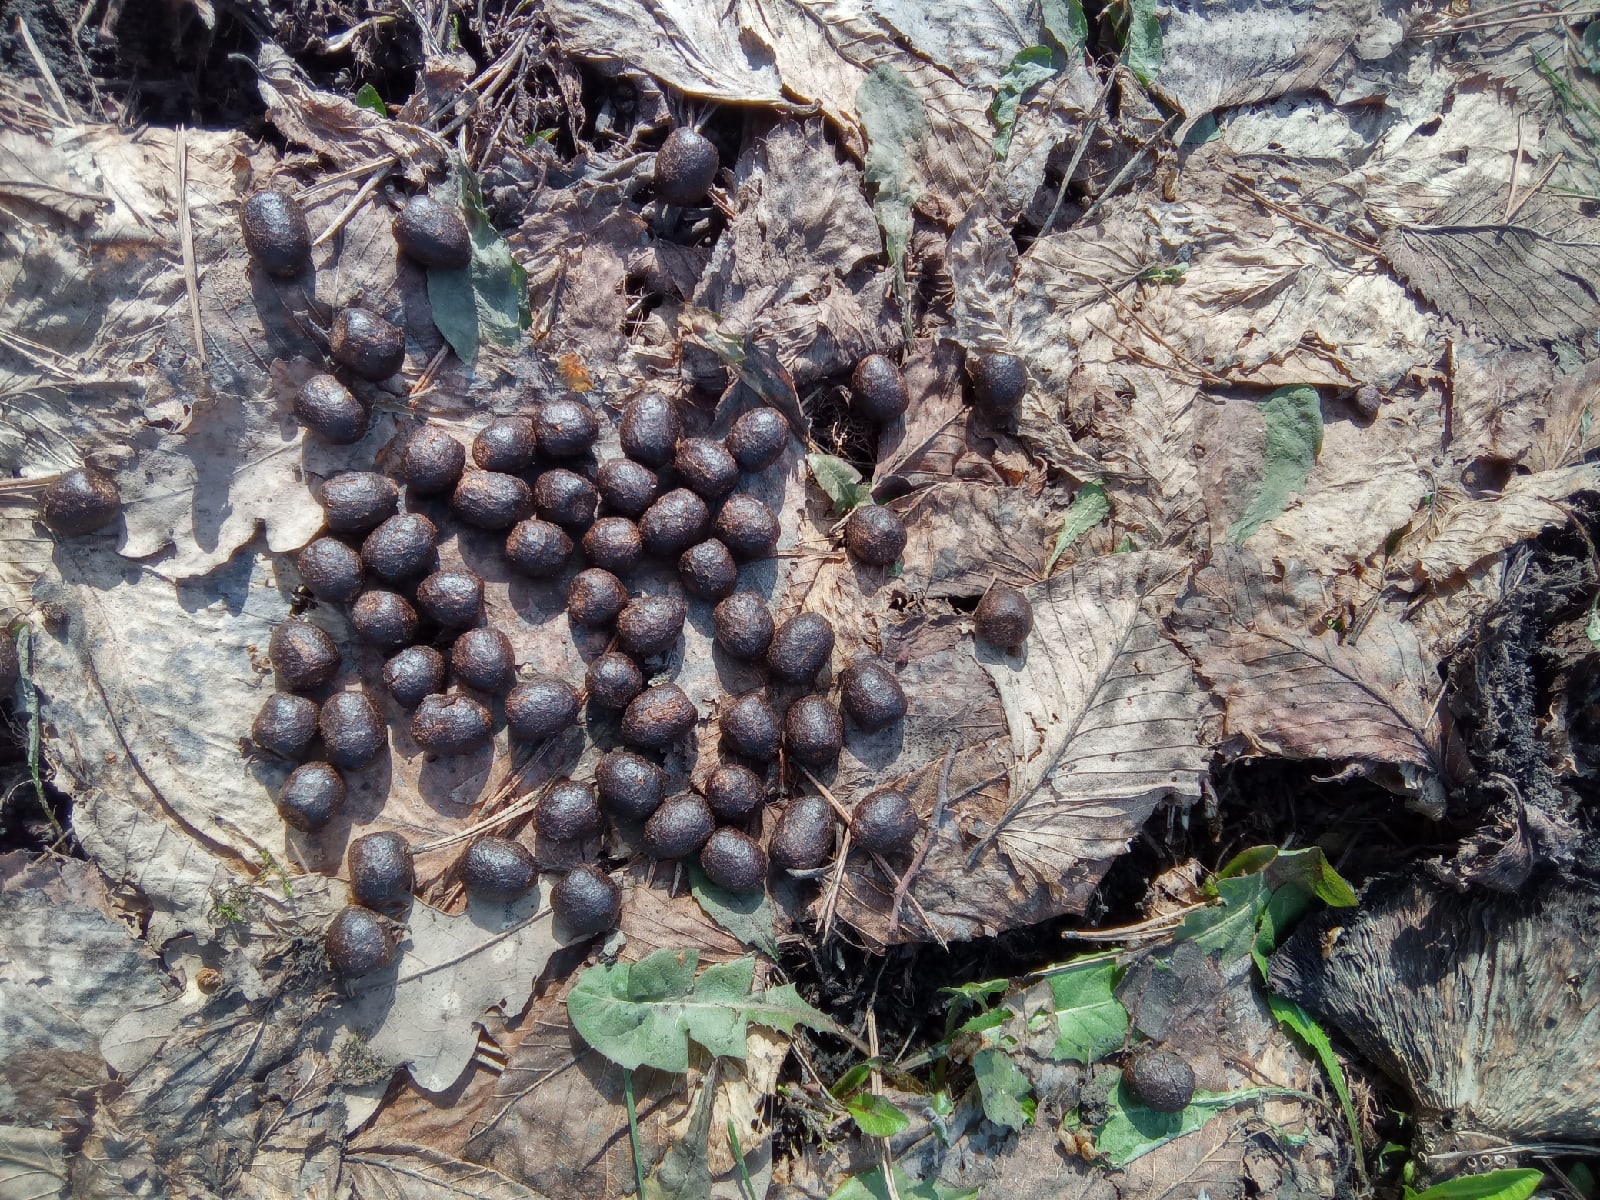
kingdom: Animalia
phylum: Chordata
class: Mammalia
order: Artiodactyla
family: Cervidae
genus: Capreolus
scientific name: Capreolus pygargus
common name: Siberian roe
